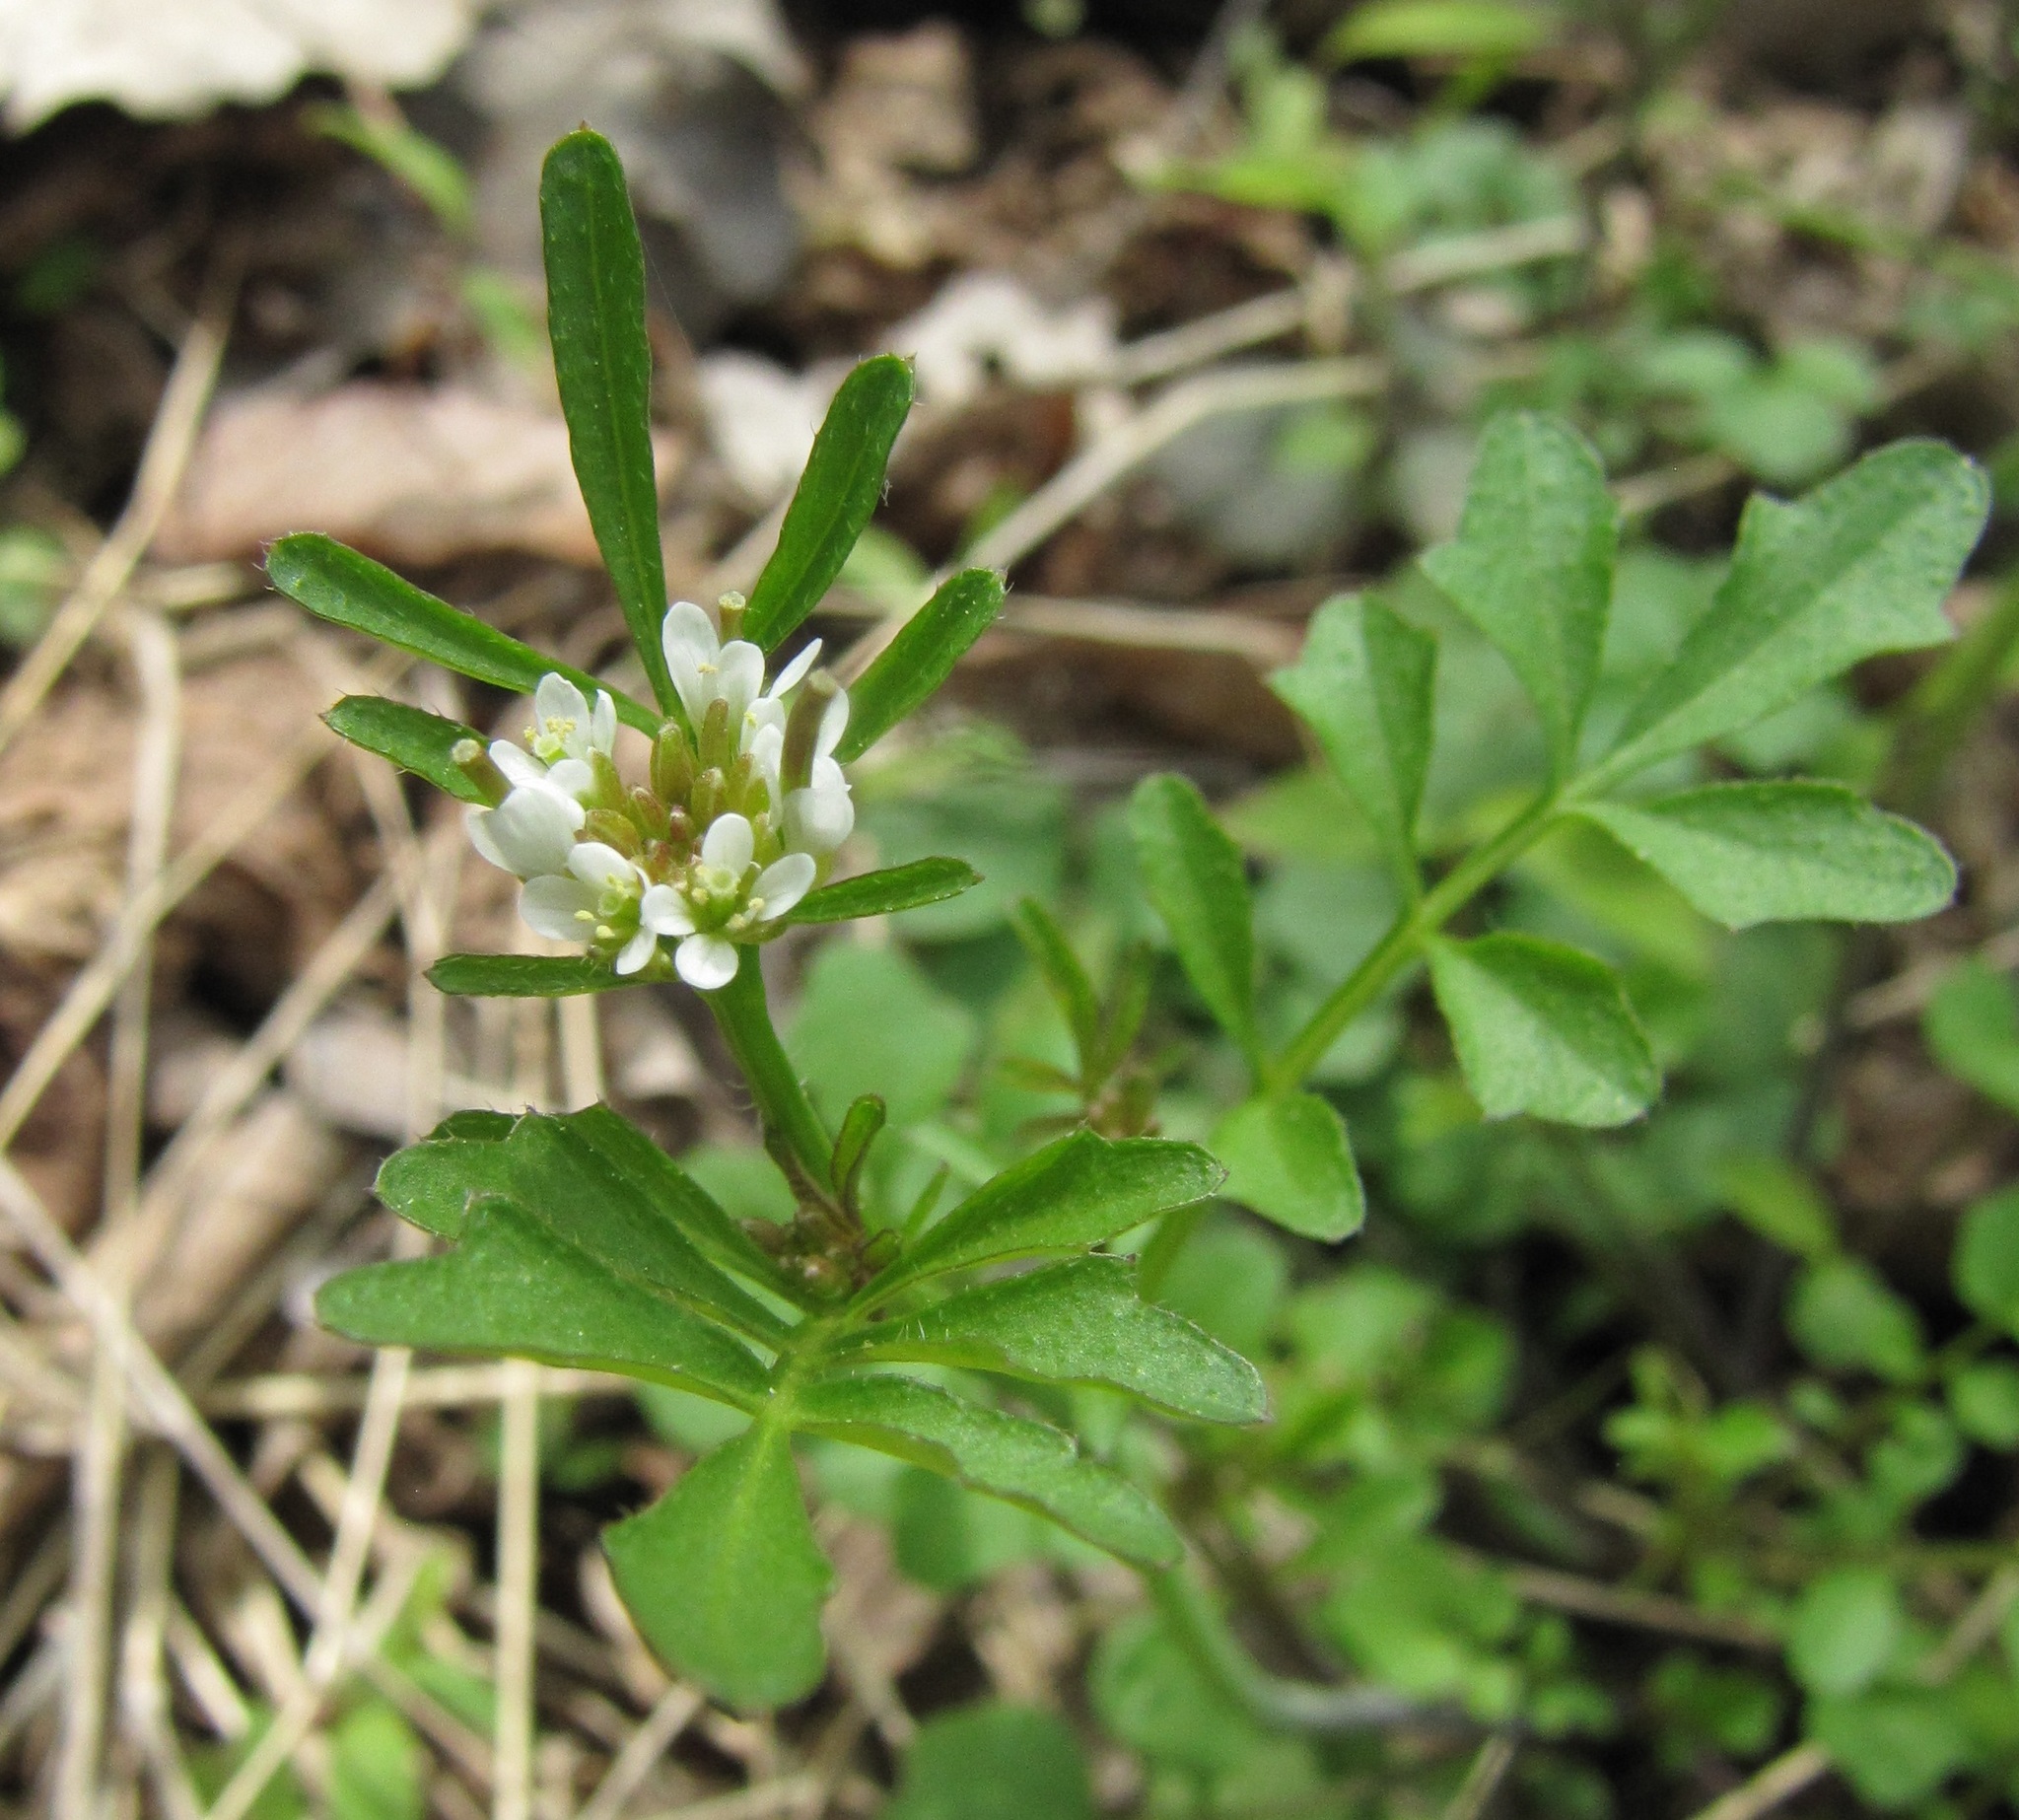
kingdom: Plantae
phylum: Tracheophyta
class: Magnoliopsida
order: Brassicales
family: Brassicaceae
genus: Cardamine
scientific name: Cardamine hirsuta
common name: Hairy bittercress
